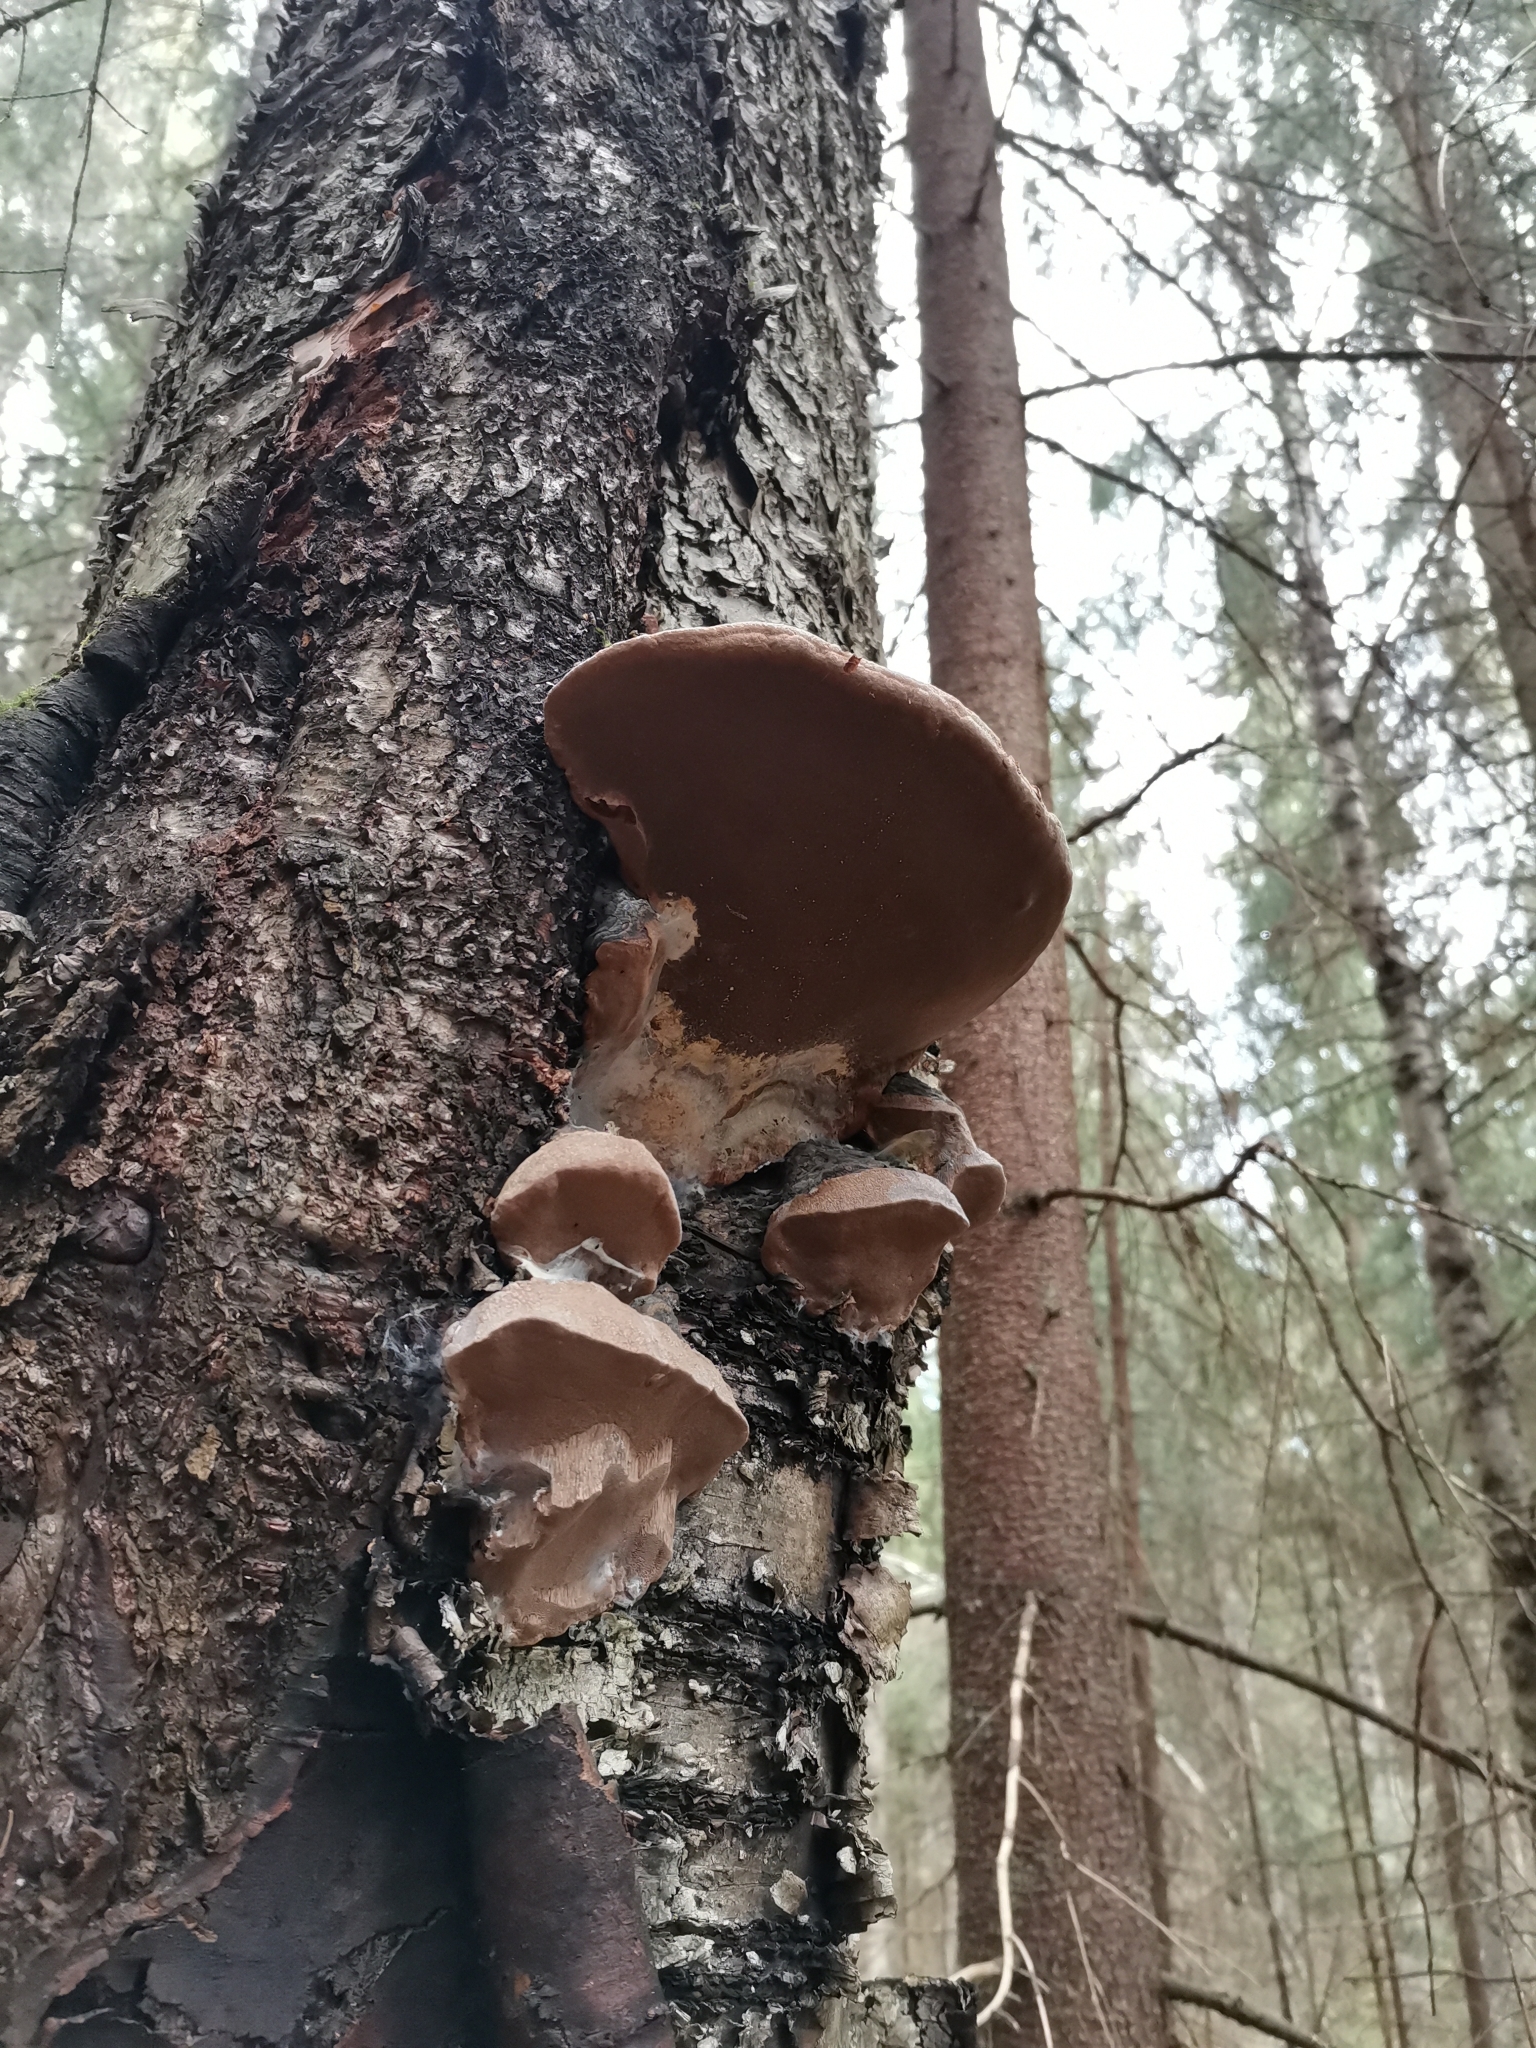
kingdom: Fungi
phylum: Basidiomycota
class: Agaricomycetes
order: Hymenochaetales
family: Hymenochaetaceae
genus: Phellinus
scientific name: Phellinus igniarius
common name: Willow bracket
